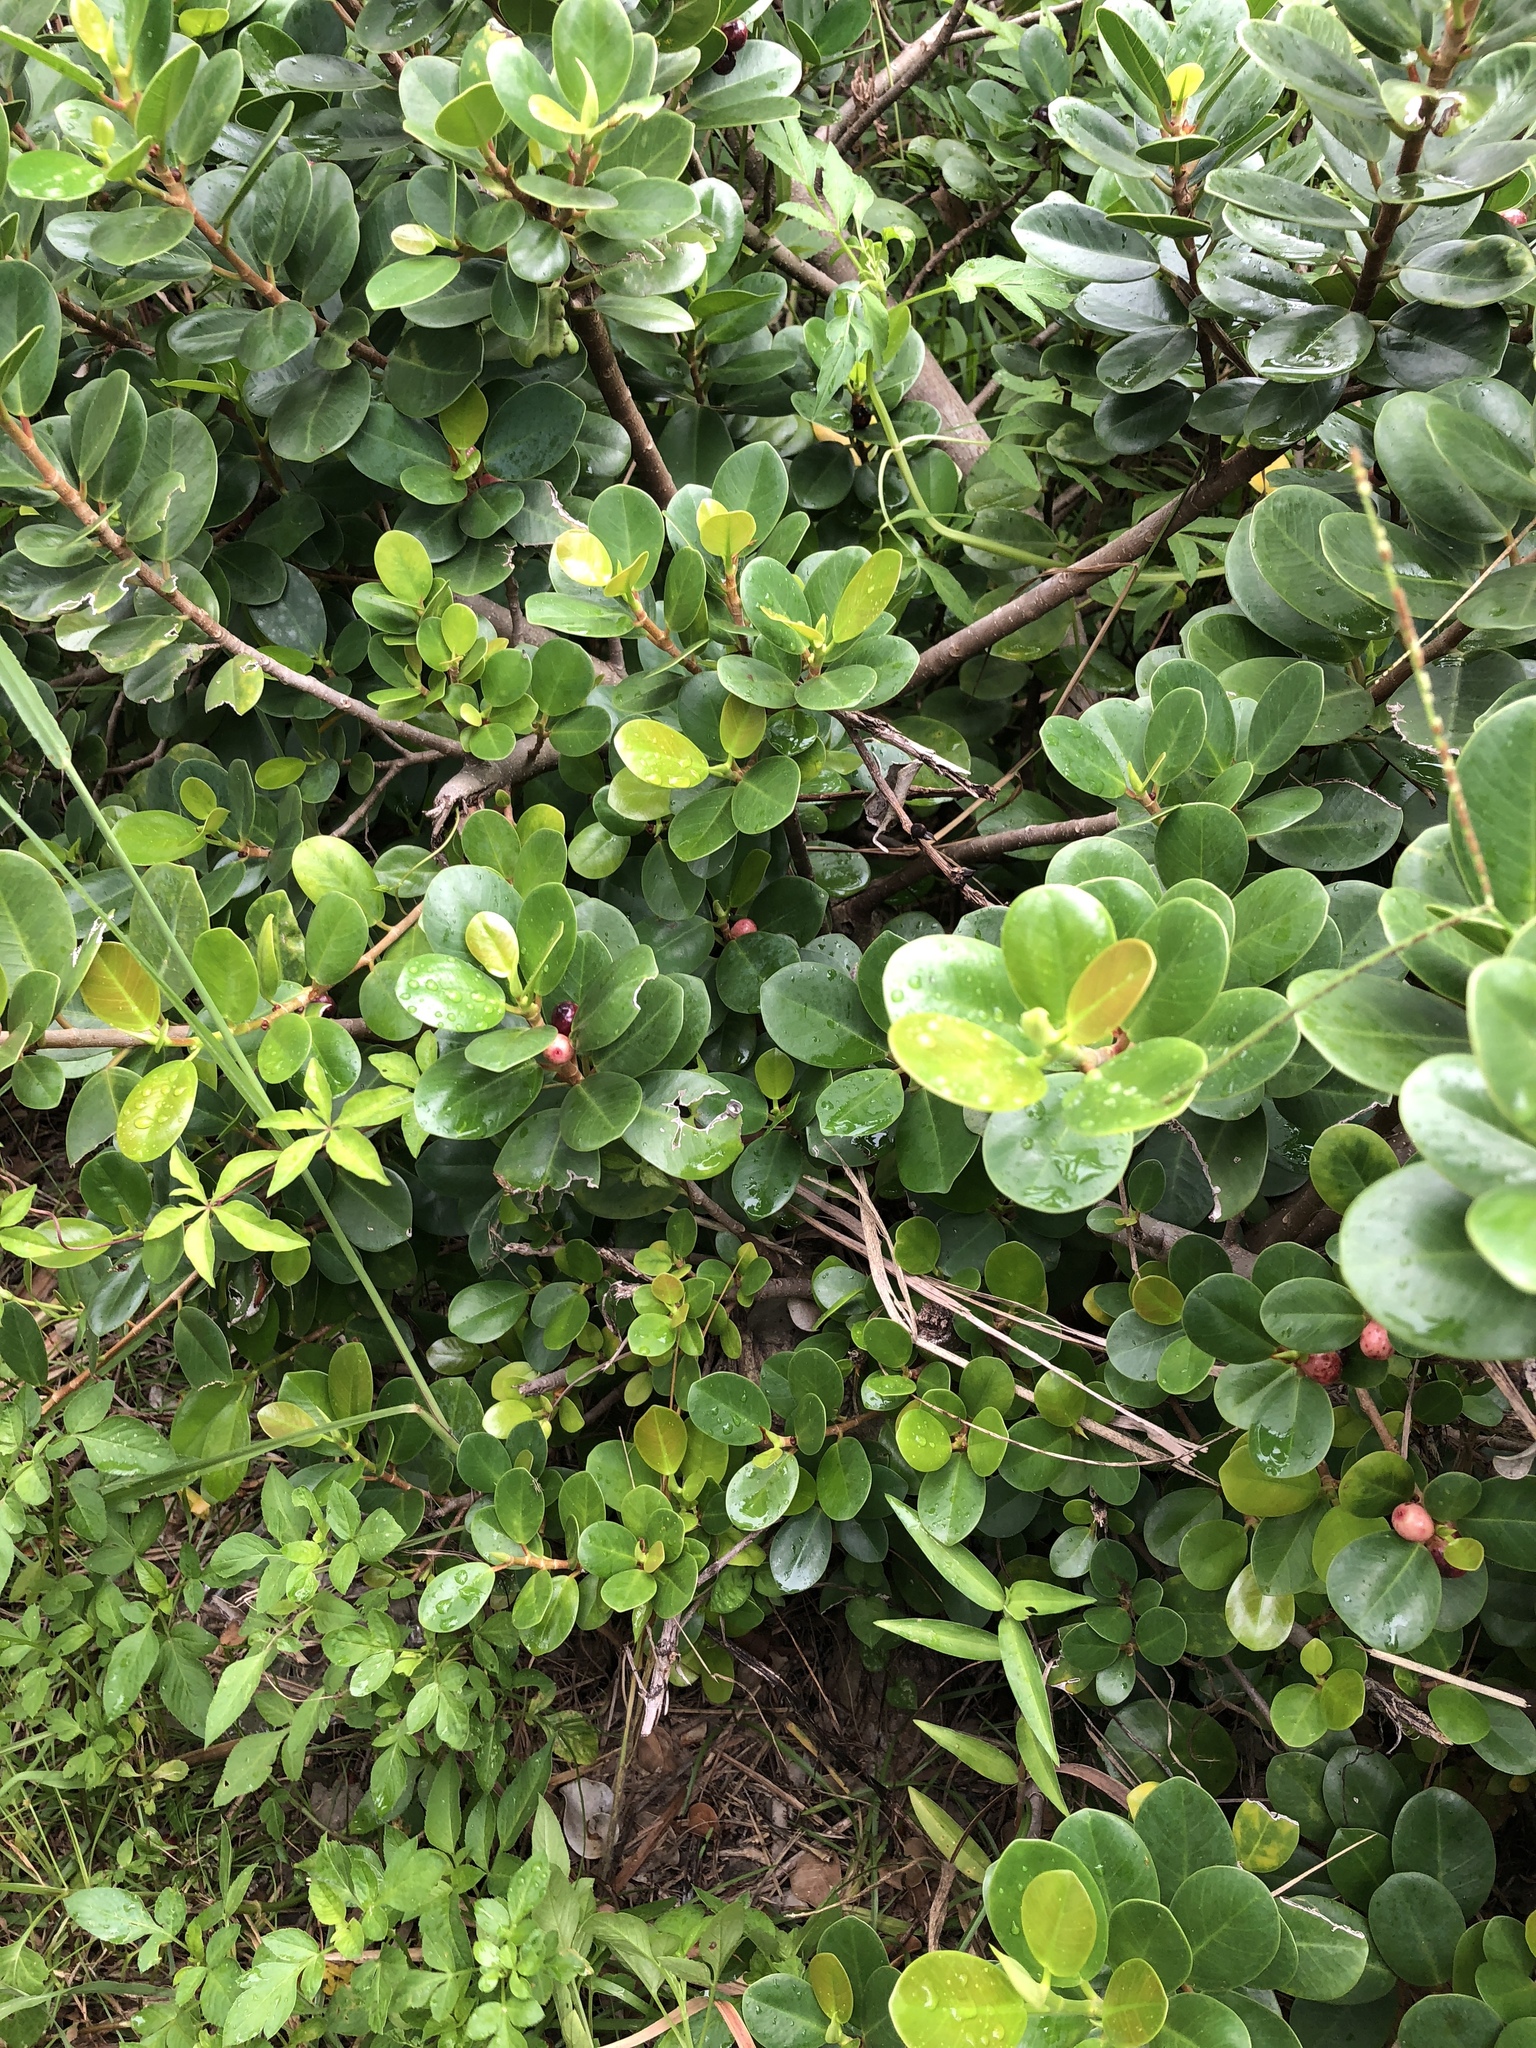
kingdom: Plantae
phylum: Tracheophyta
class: Magnoliopsida
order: Rosales
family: Moraceae
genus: Ficus
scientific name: Ficus microcarpa
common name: Chinese banyan
